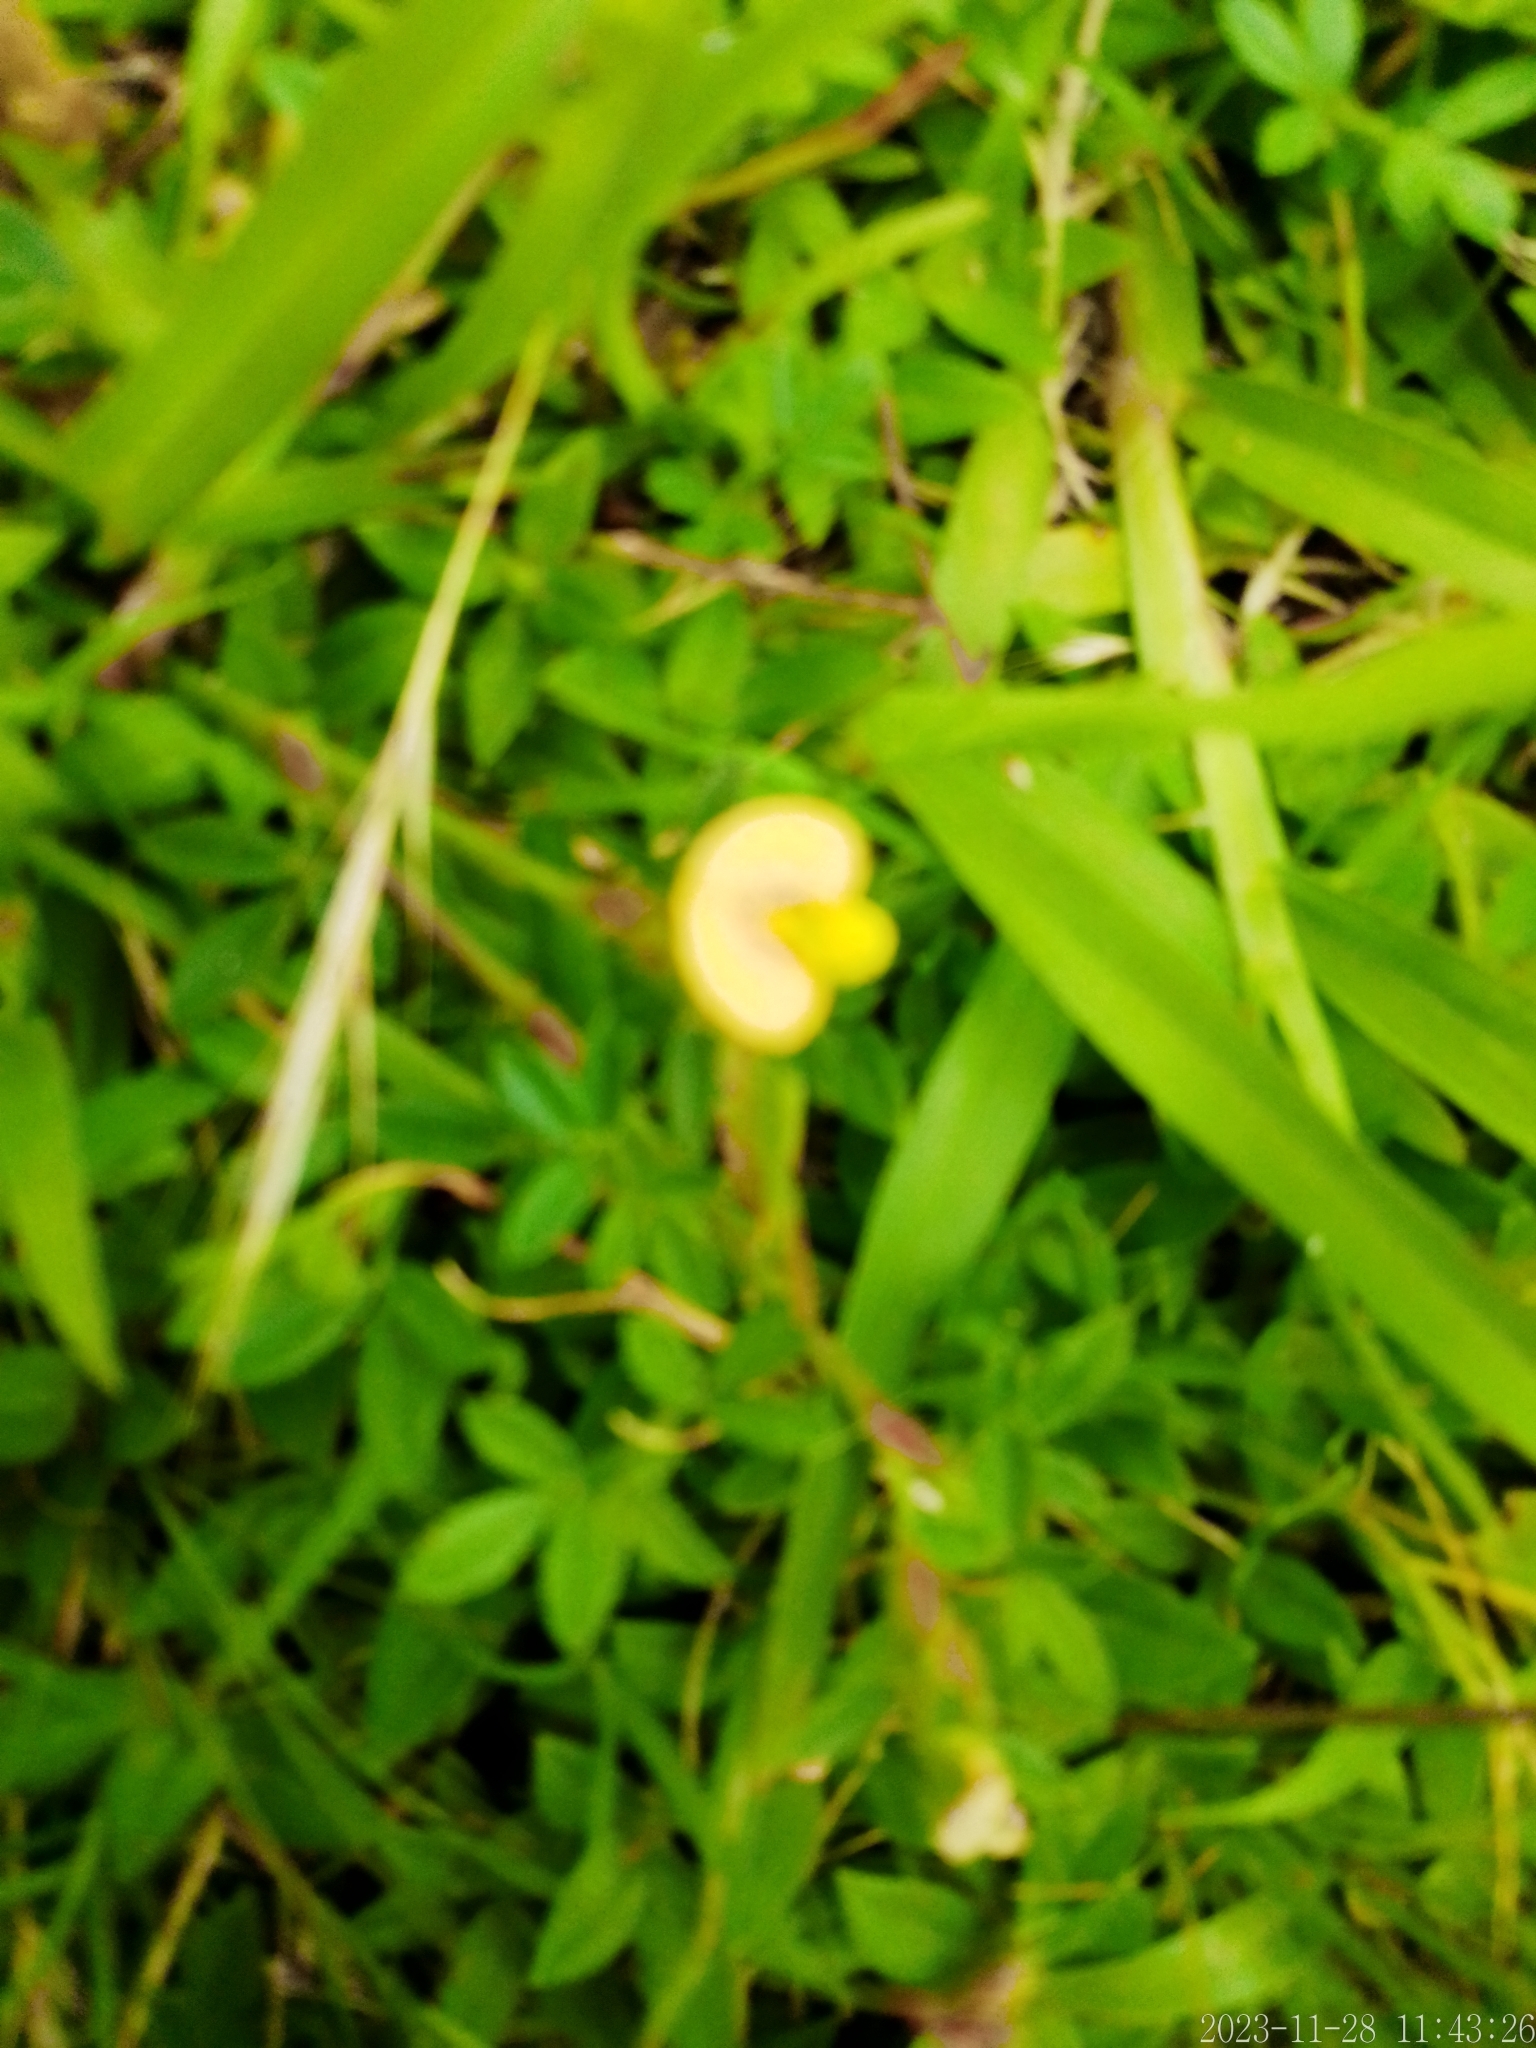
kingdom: Plantae
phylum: Tracheophyta
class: Magnoliopsida
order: Fabales
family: Fabaceae
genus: Stylosanthes
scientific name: Stylosanthes leiocarpa
